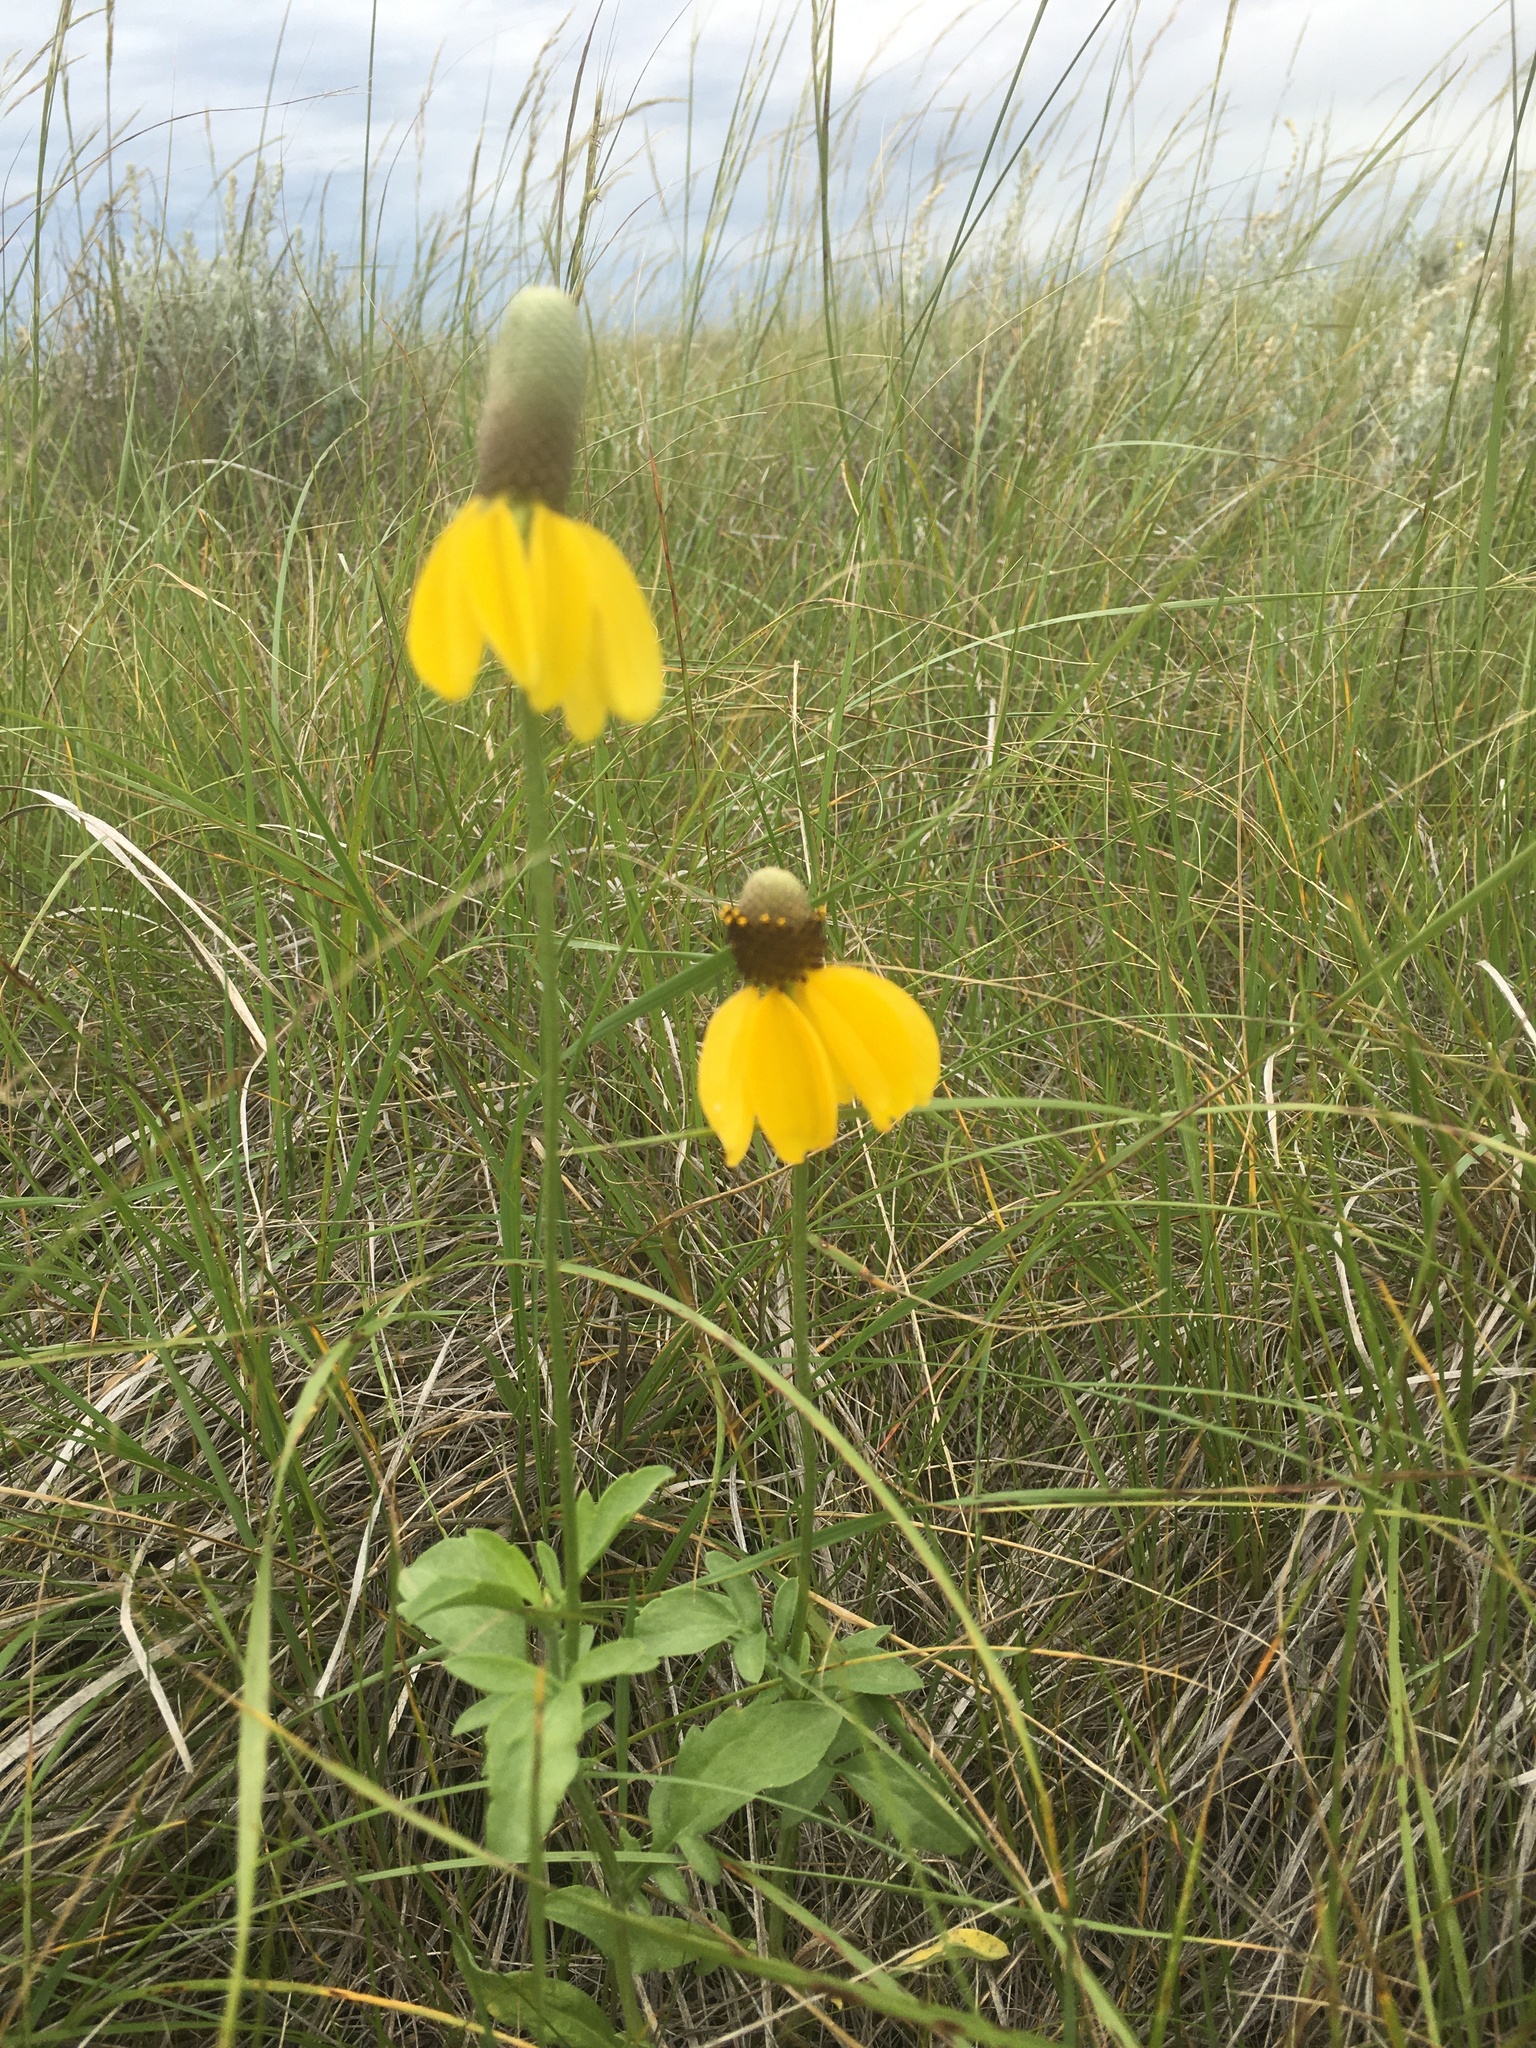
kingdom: Plantae
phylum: Tracheophyta
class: Magnoliopsida
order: Asterales
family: Asteraceae
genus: Ratibida
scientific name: Ratibida columnifera
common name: Prairie coneflower
